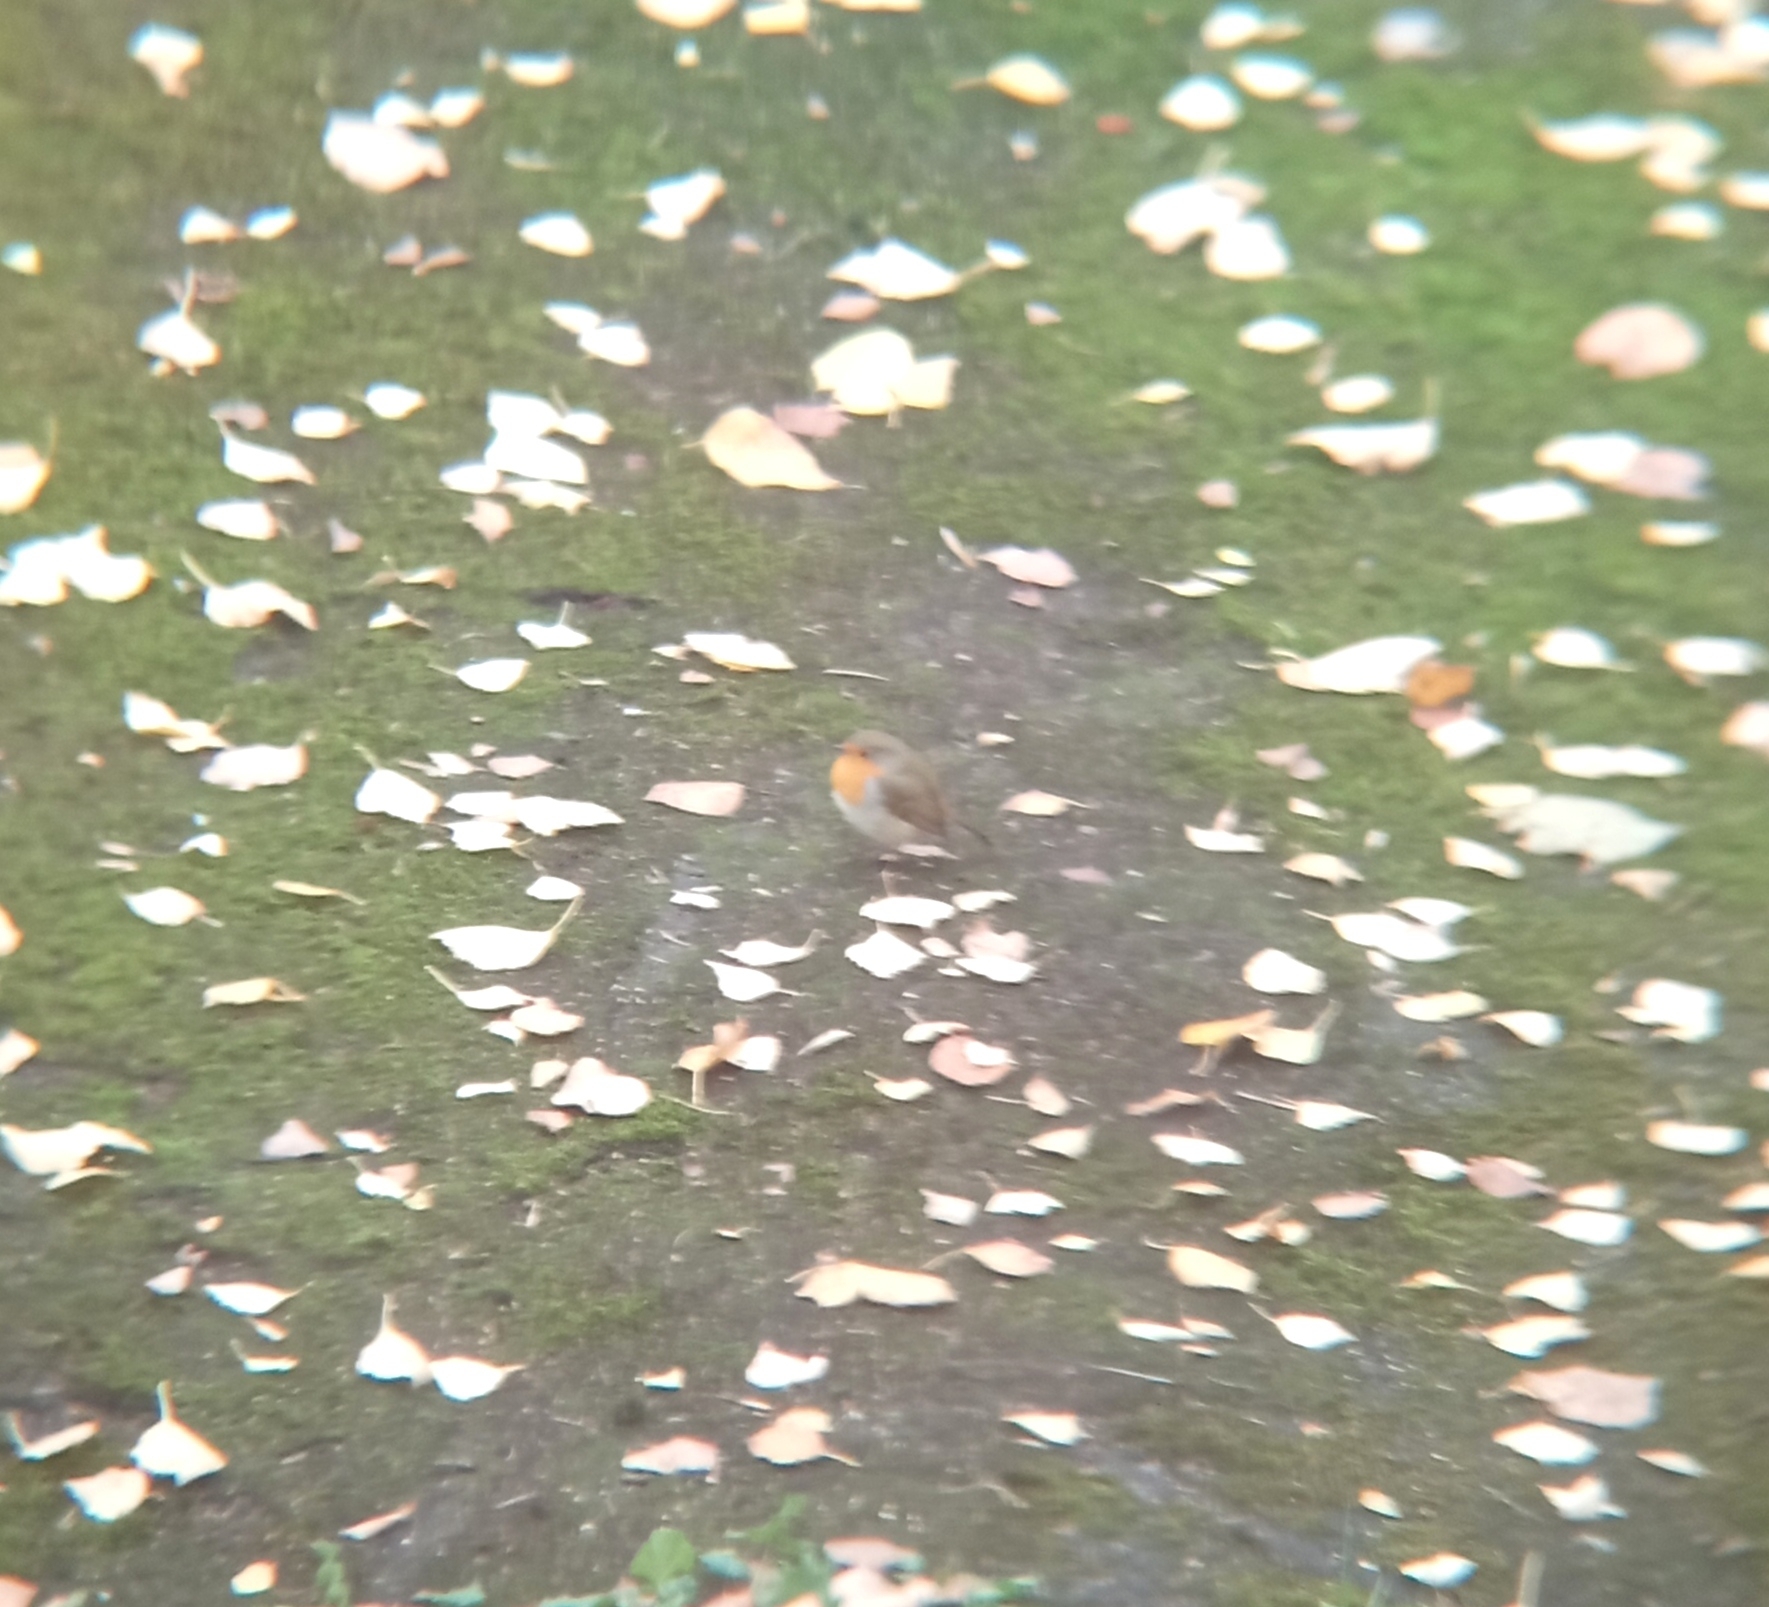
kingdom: Animalia
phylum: Chordata
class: Aves
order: Passeriformes
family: Muscicapidae
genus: Erithacus
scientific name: Erithacus rubecula
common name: European robin
